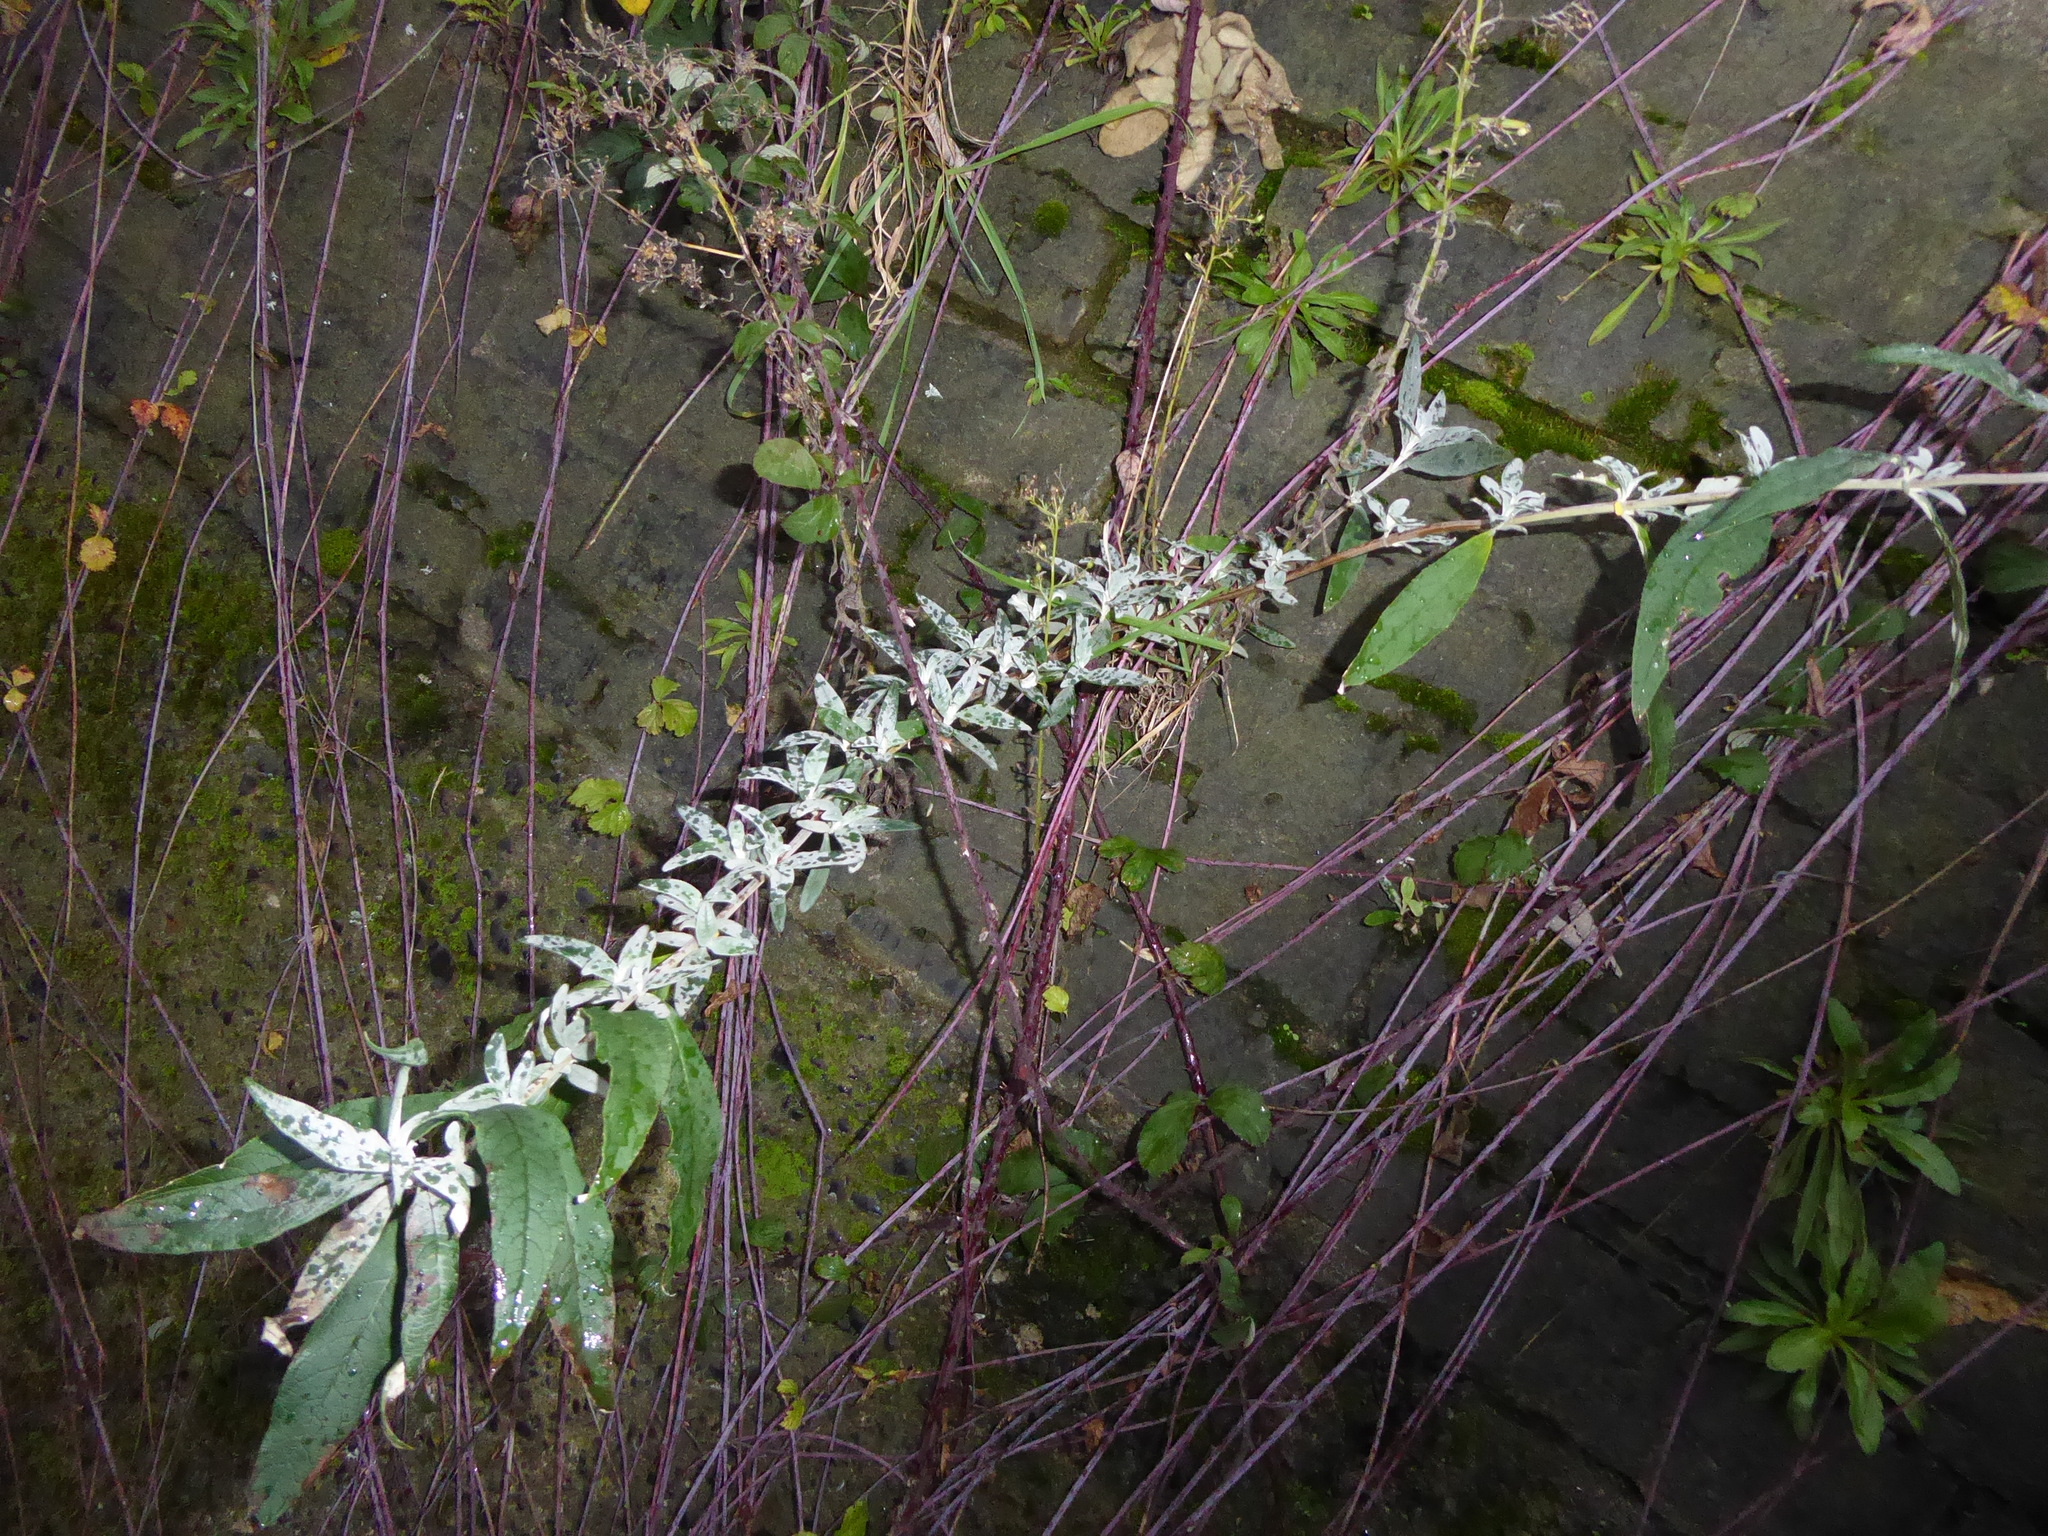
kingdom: Plantae
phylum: Tracheophyta
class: Magnoliopsida
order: Lamiales
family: Scrophulariaceae
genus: Buddleja
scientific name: Buddleja davidii
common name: Butterfly-bush
